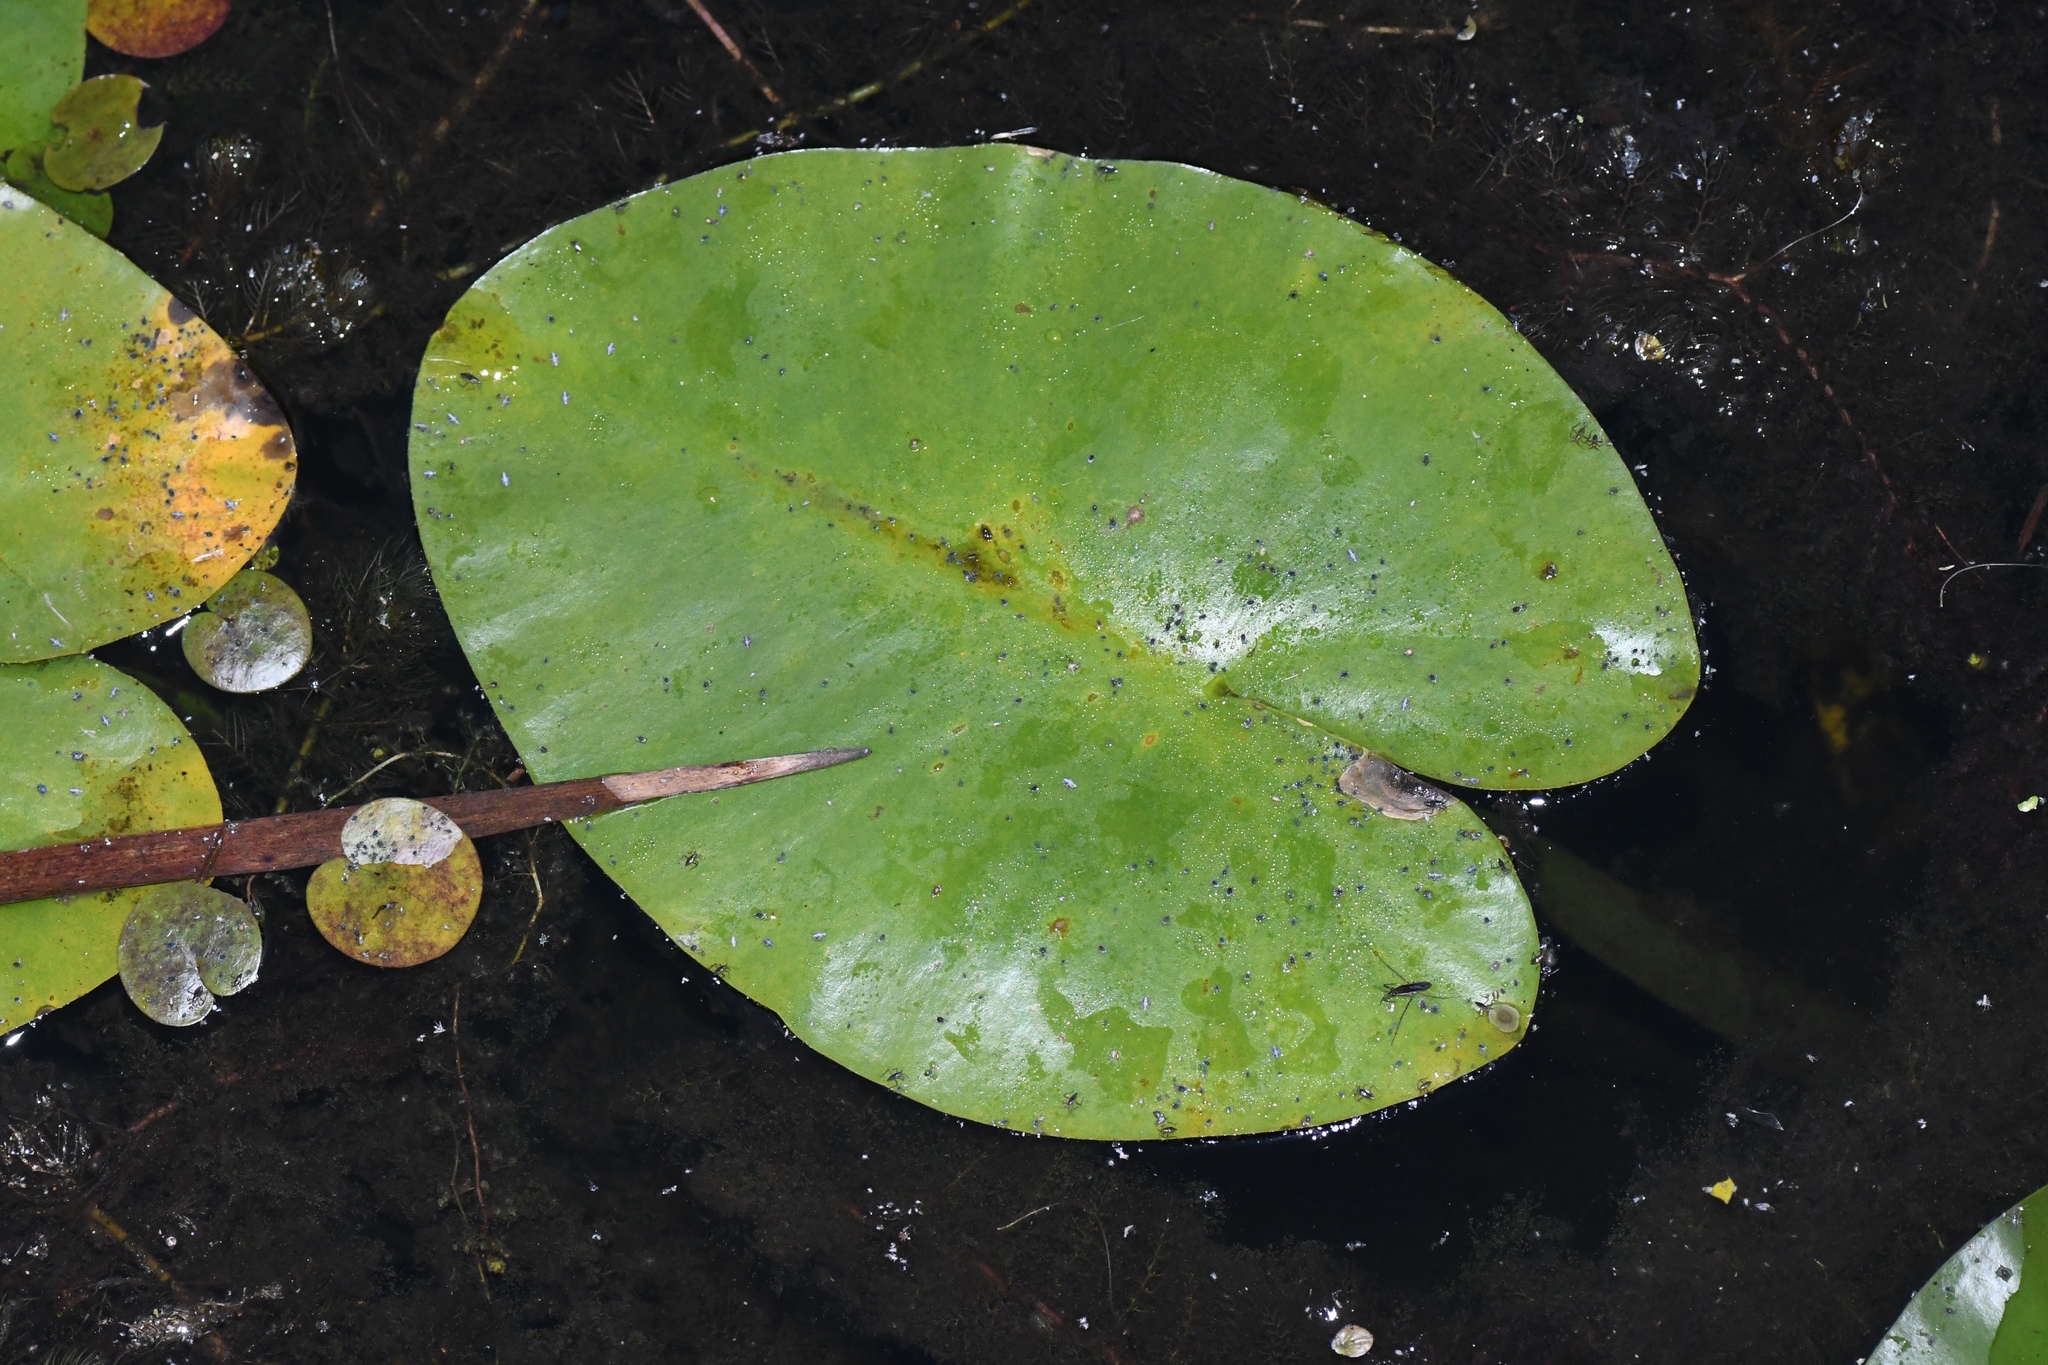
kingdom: Plantae
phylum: Tracheophyta
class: Magnoliopsida
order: Nymphaeales
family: Nymphaeaceae
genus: Nuphar
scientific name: Nuphar variegata
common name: Beaver-root
